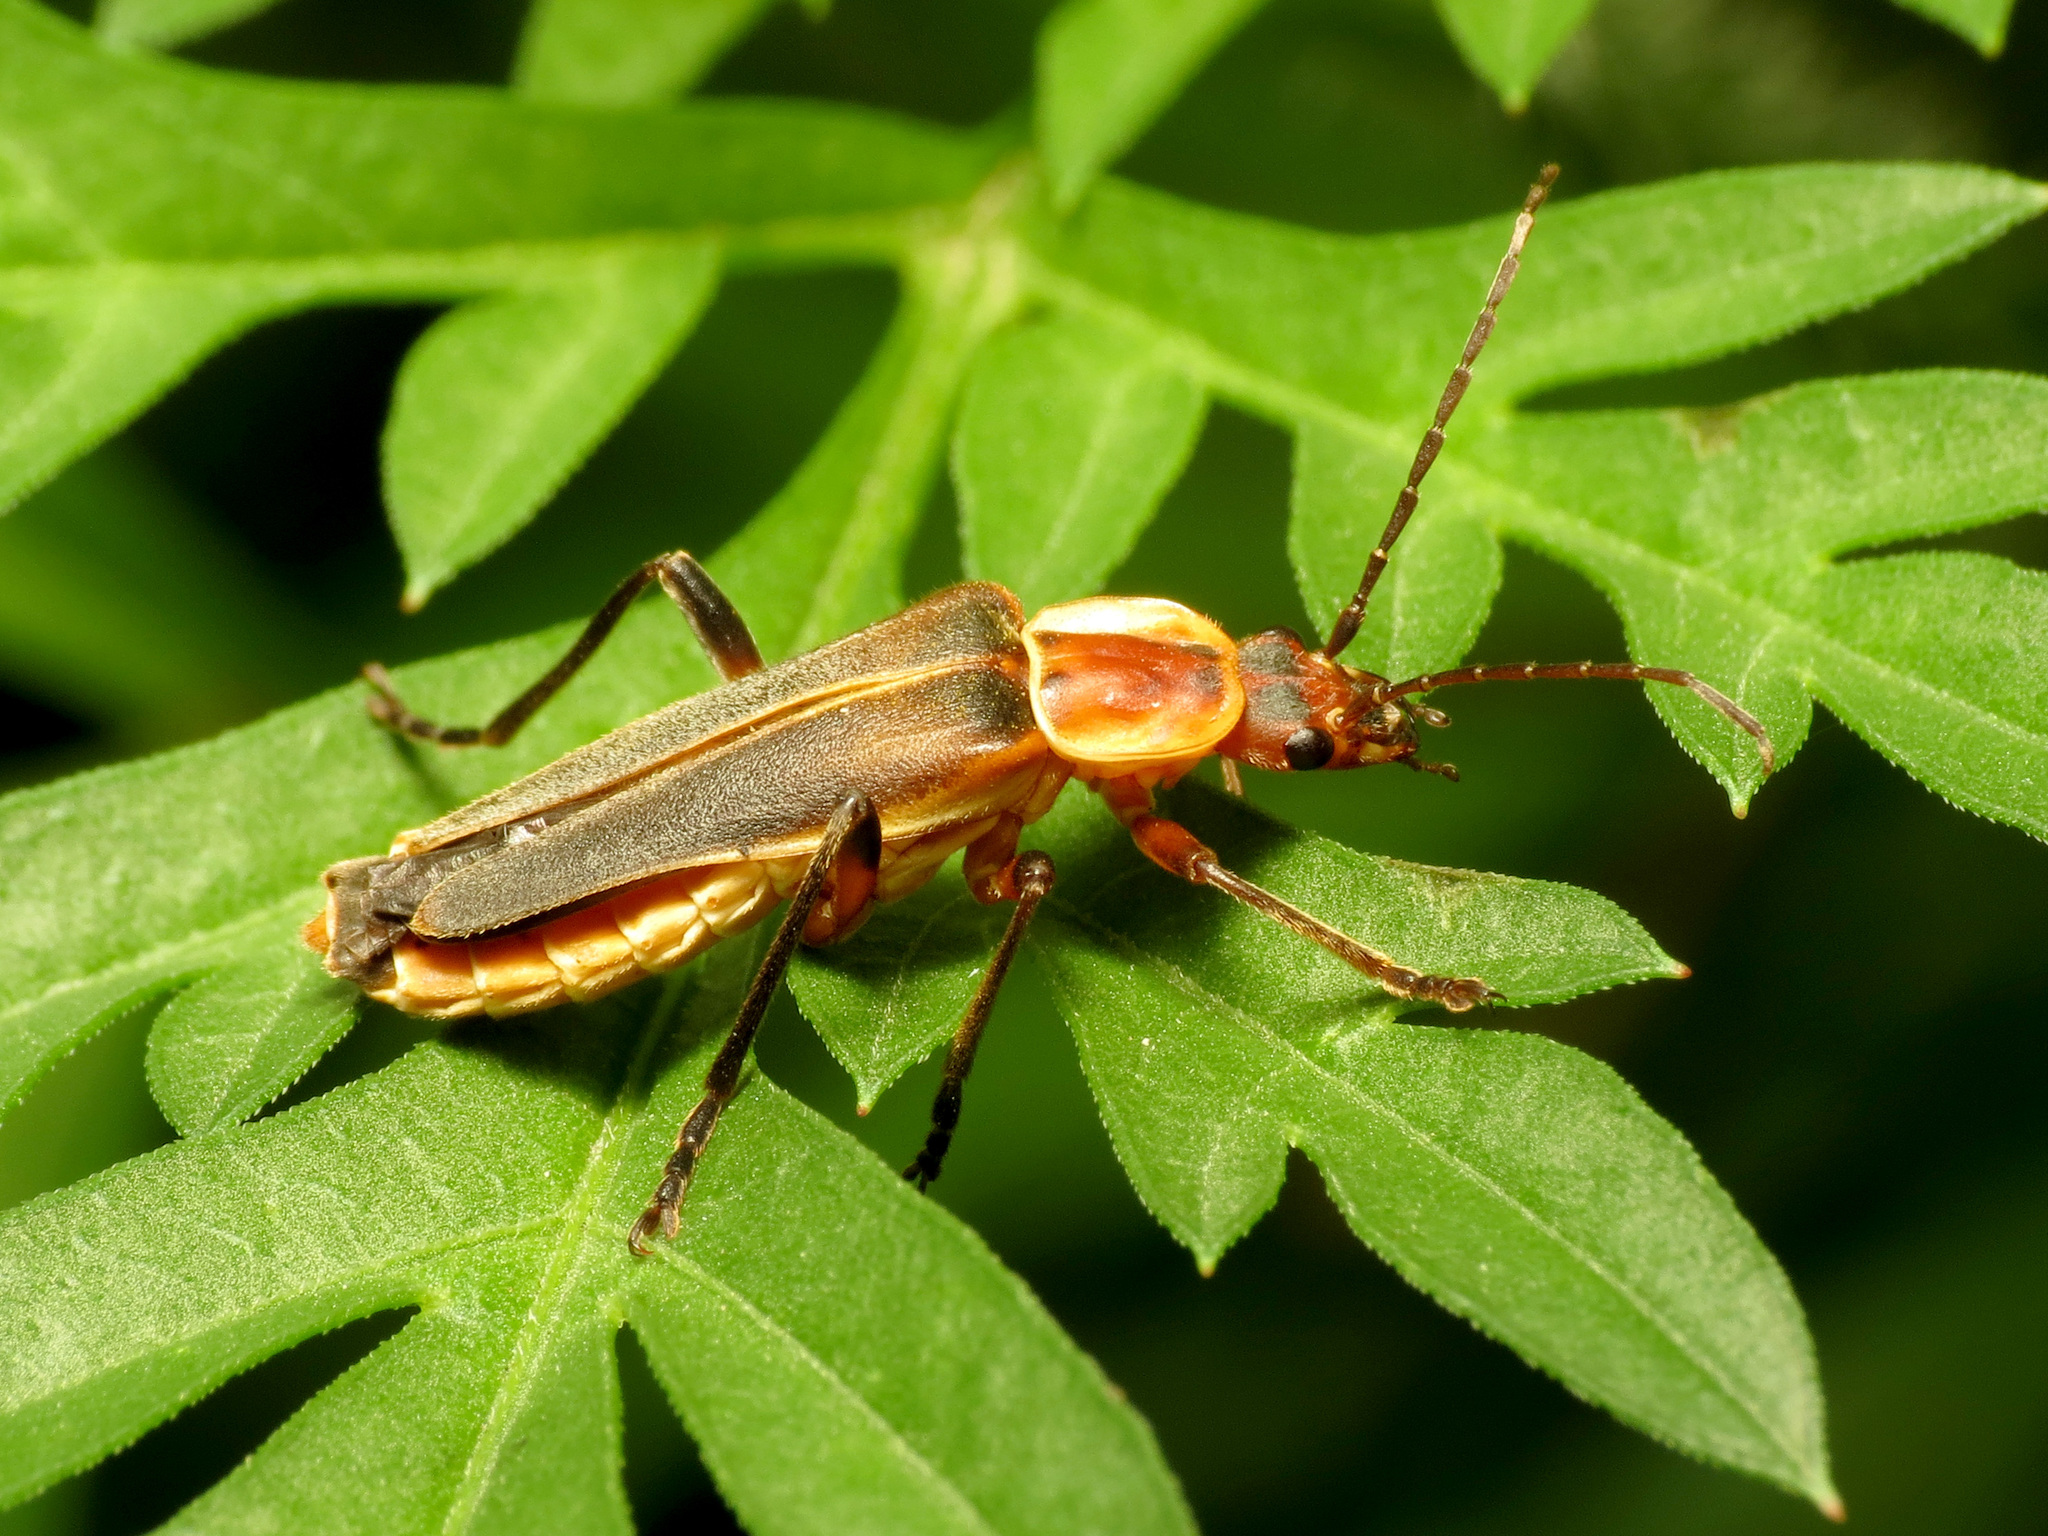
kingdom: Animalia
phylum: Arthropoda
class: Insecta
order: Coleoptera
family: Cantharidae
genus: Chauliognathus
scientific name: Chauliognathus obscurus
